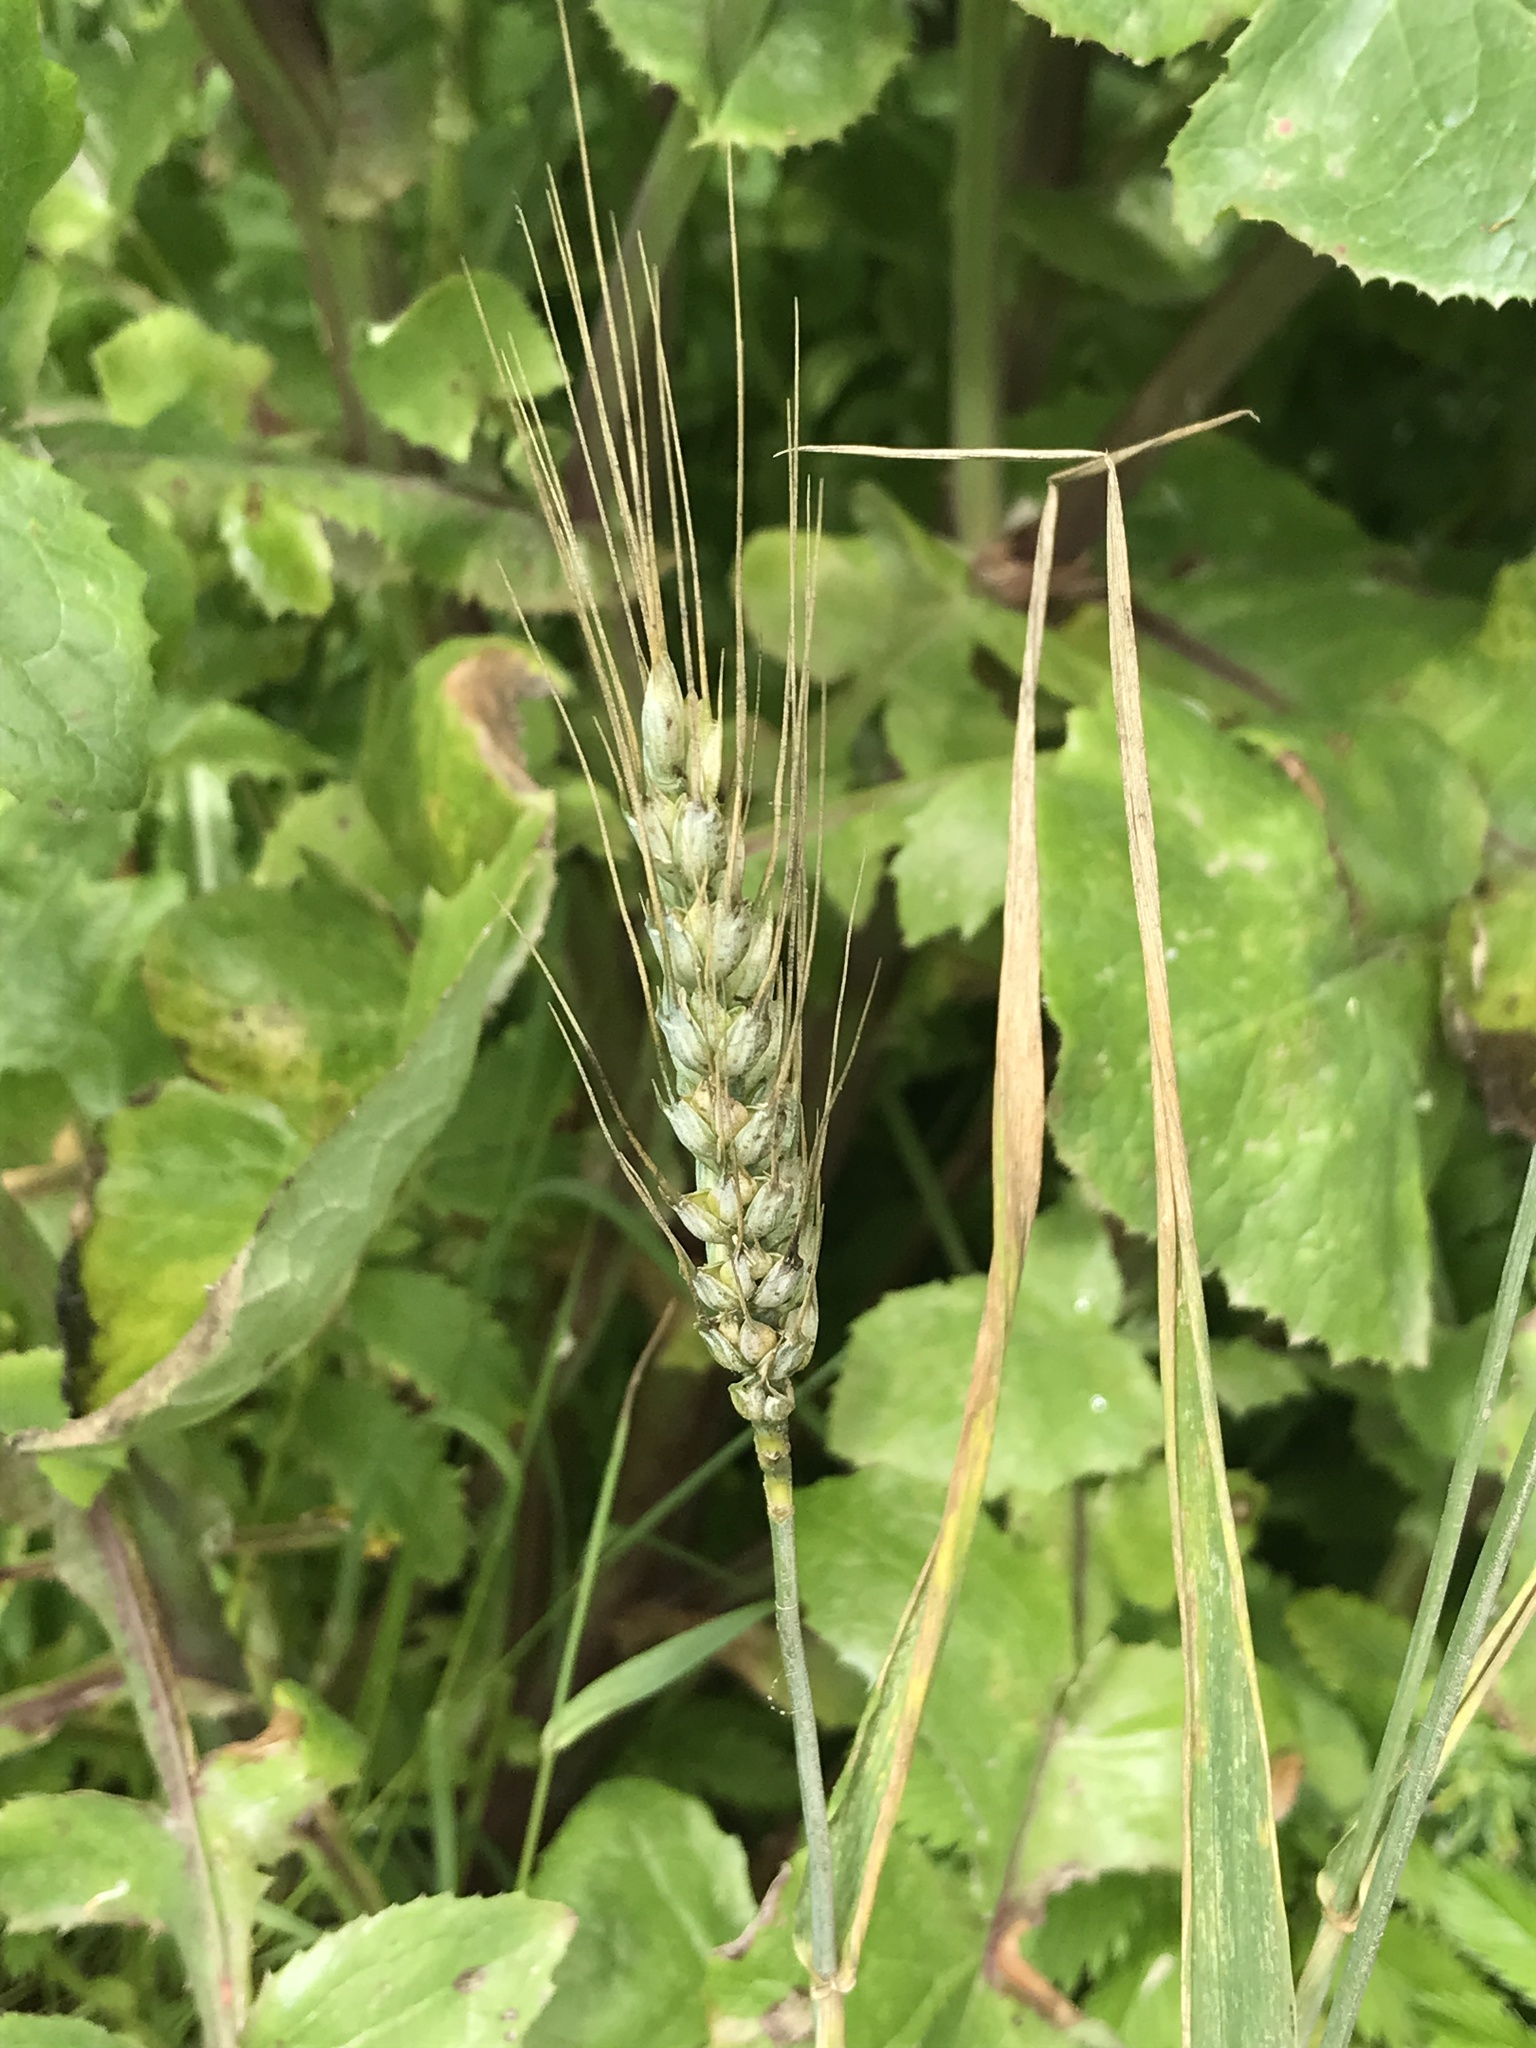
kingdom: Plantae
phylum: Tracheophyta
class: Liliopsida
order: Poales
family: Poaceae
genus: Triticum
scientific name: Triticum aestivum
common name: Common wheat
